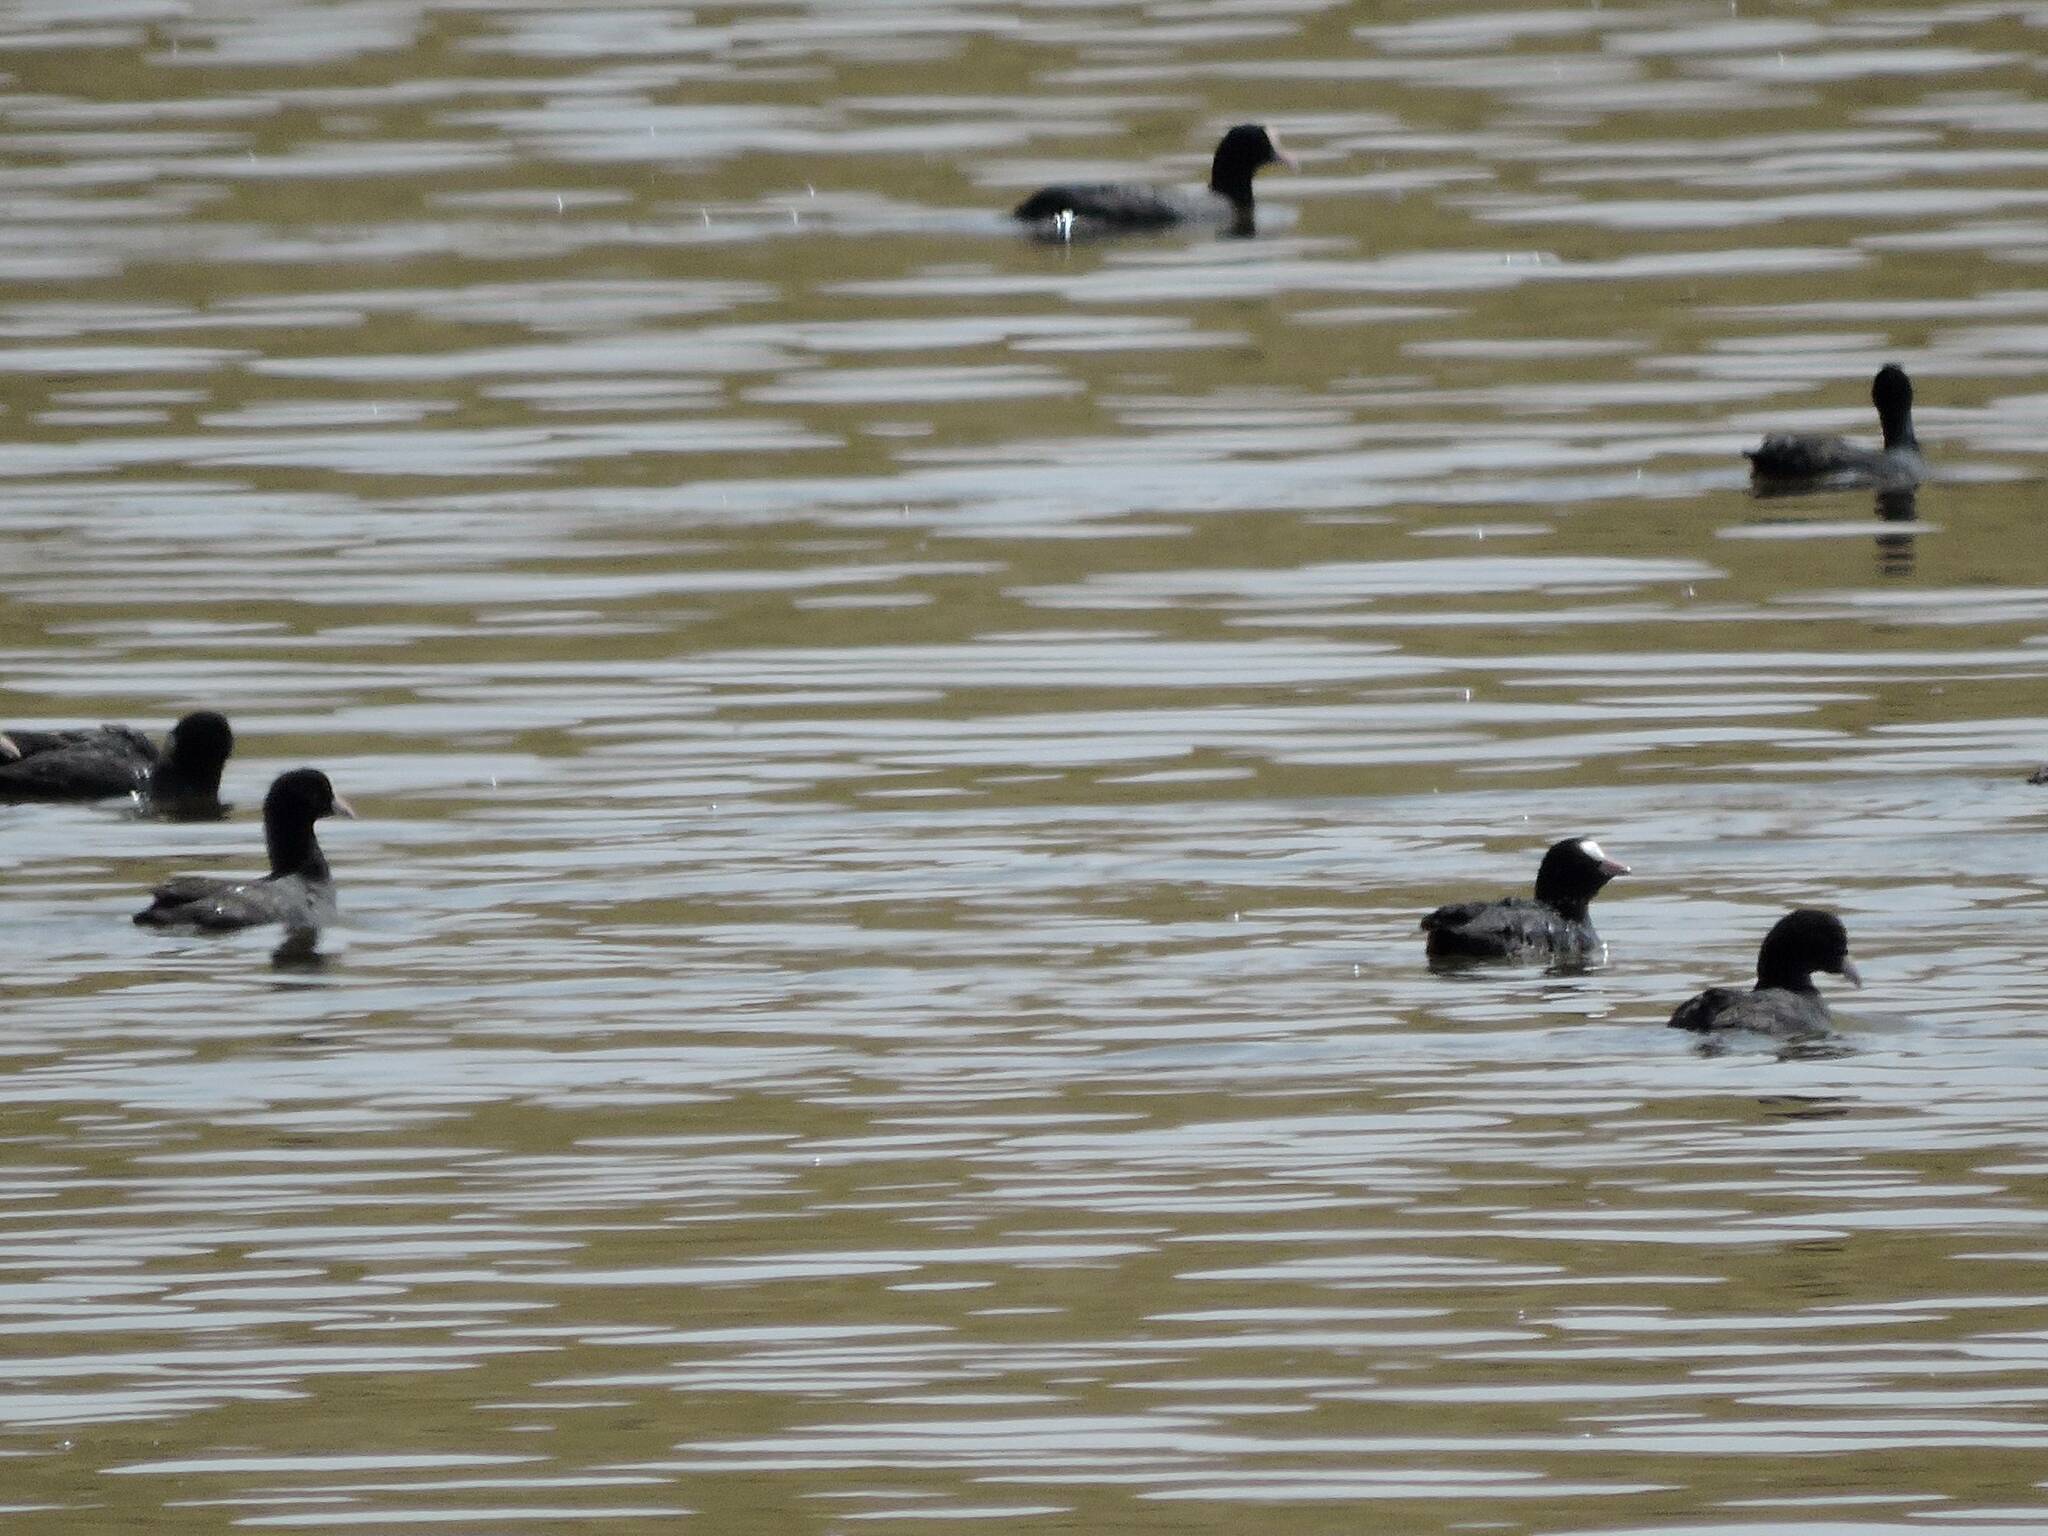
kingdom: Animalia
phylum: Chordata
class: Aves
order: Gruiformes
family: Rallidae
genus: Fulica
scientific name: Fulica atra
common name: Eurasian coot
